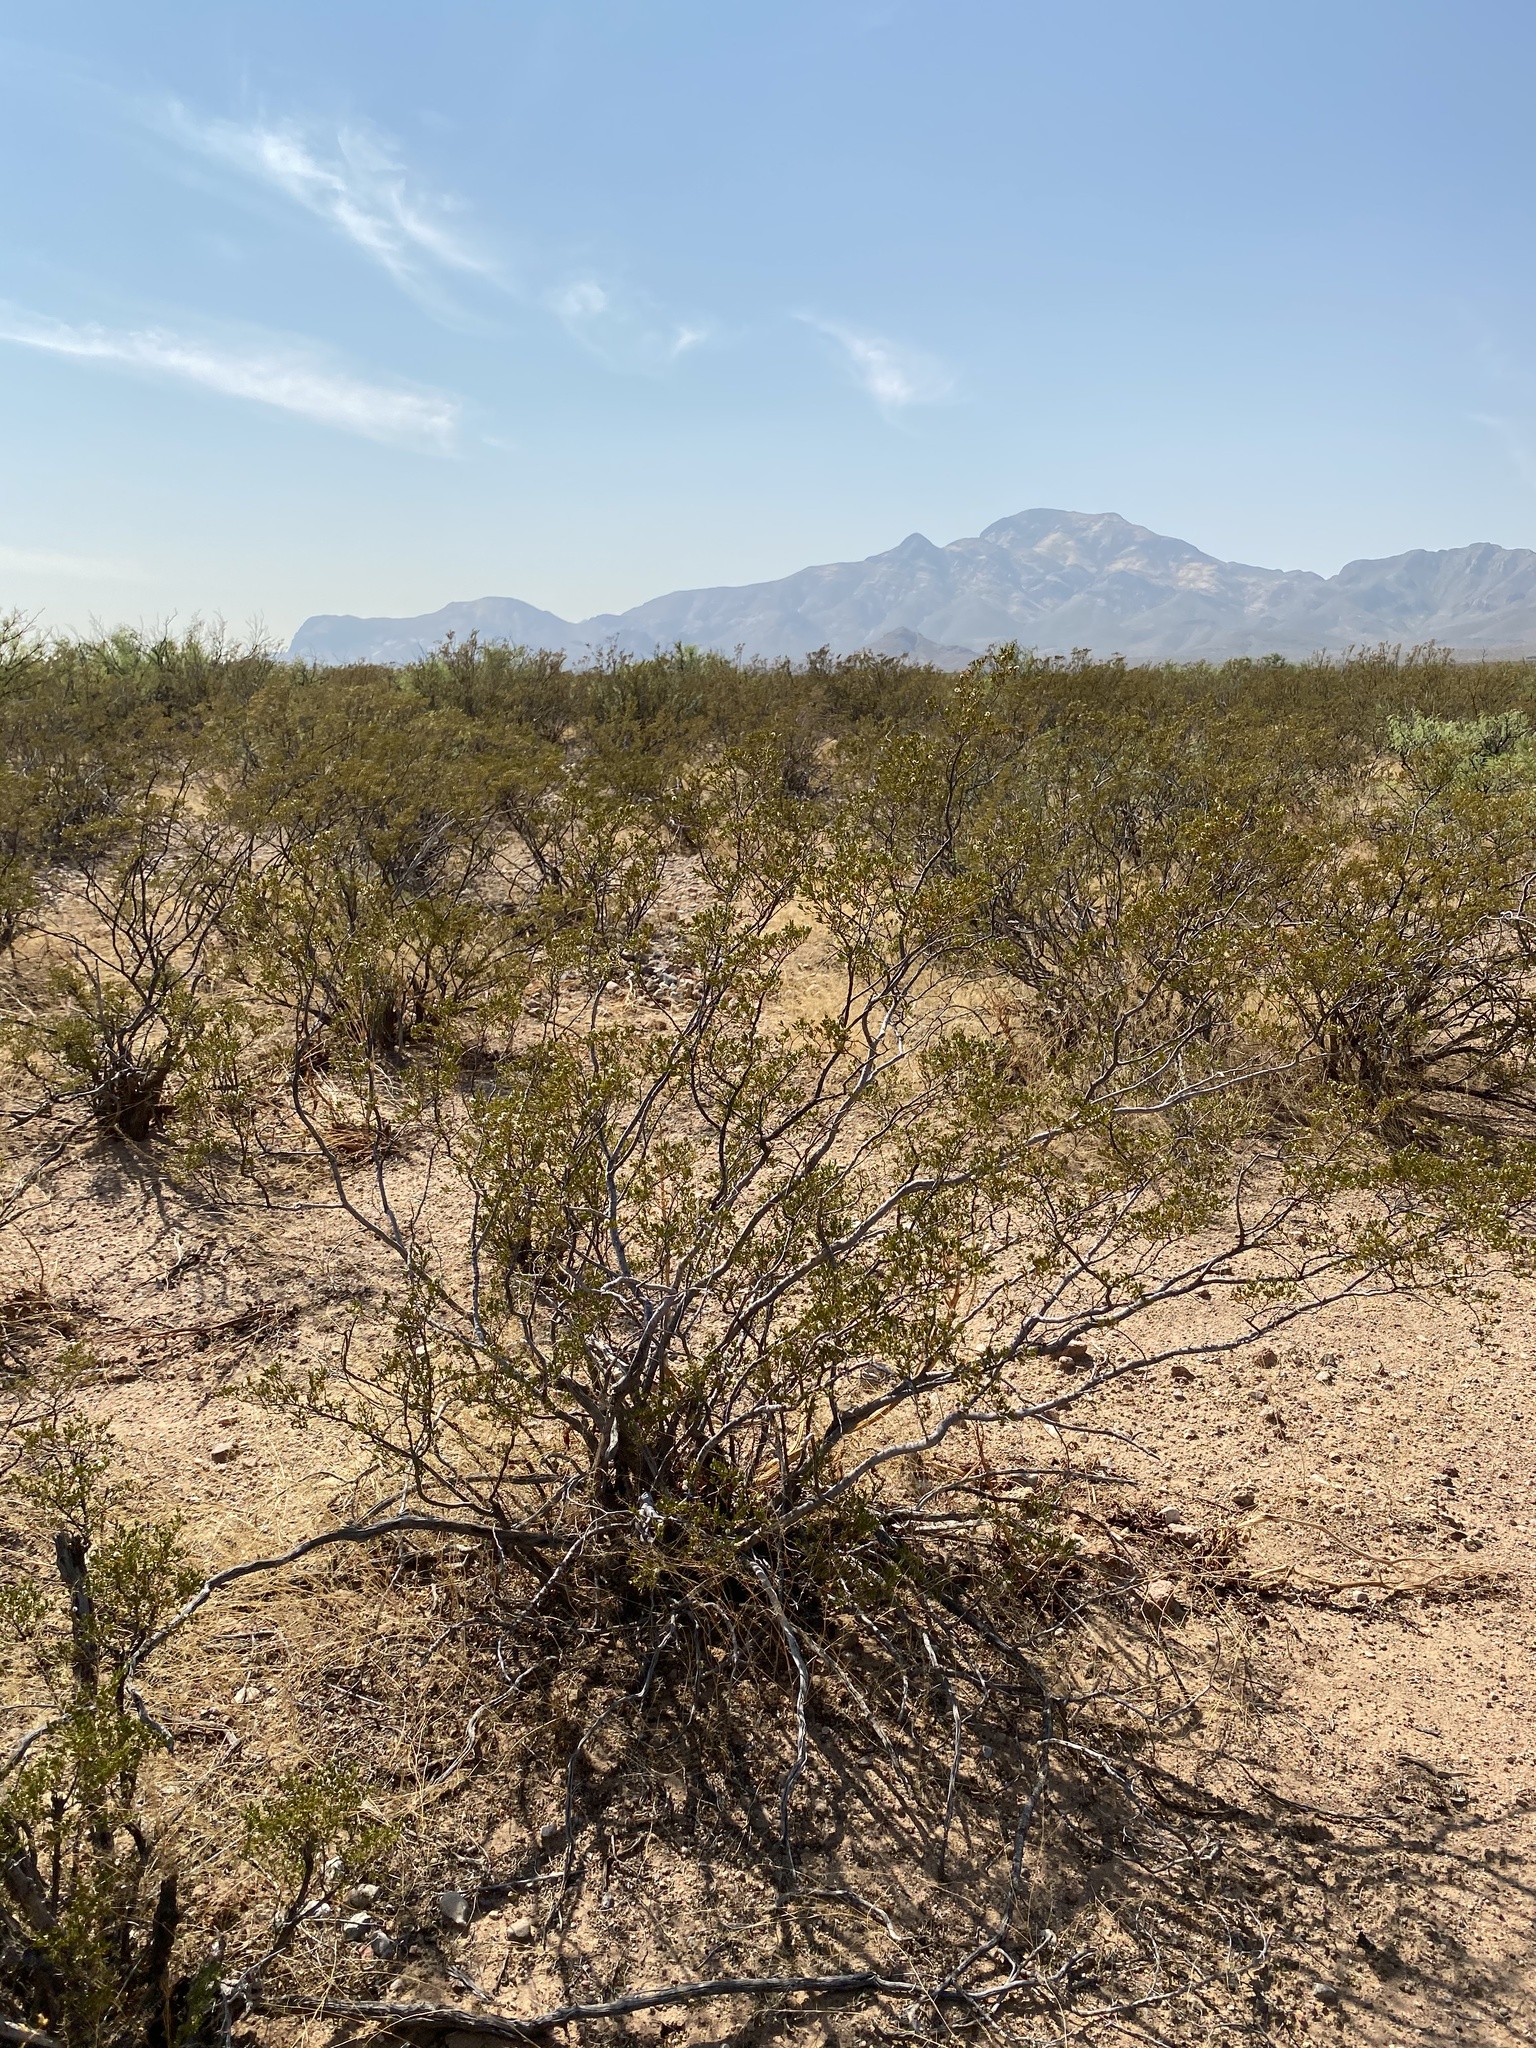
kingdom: Plantae
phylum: Tracheophyta
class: Magnoliopsida
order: Zygophyllales
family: Zygophyllaceae
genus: Larrea
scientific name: Larrea tridentata
